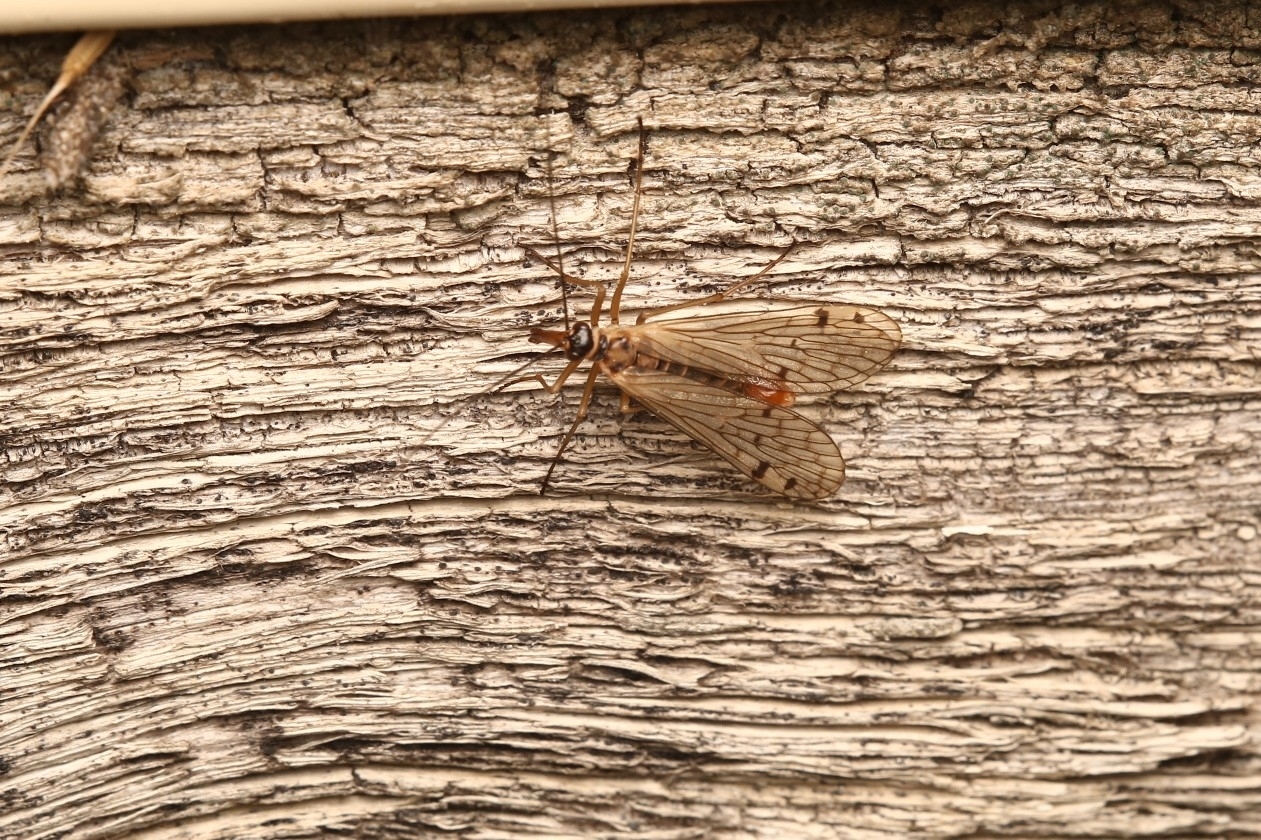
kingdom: Animalia
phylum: Arthropoda
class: Insecta
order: Mecoptera
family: Panorpidae
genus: Panorpa
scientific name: Panorpa alpina
